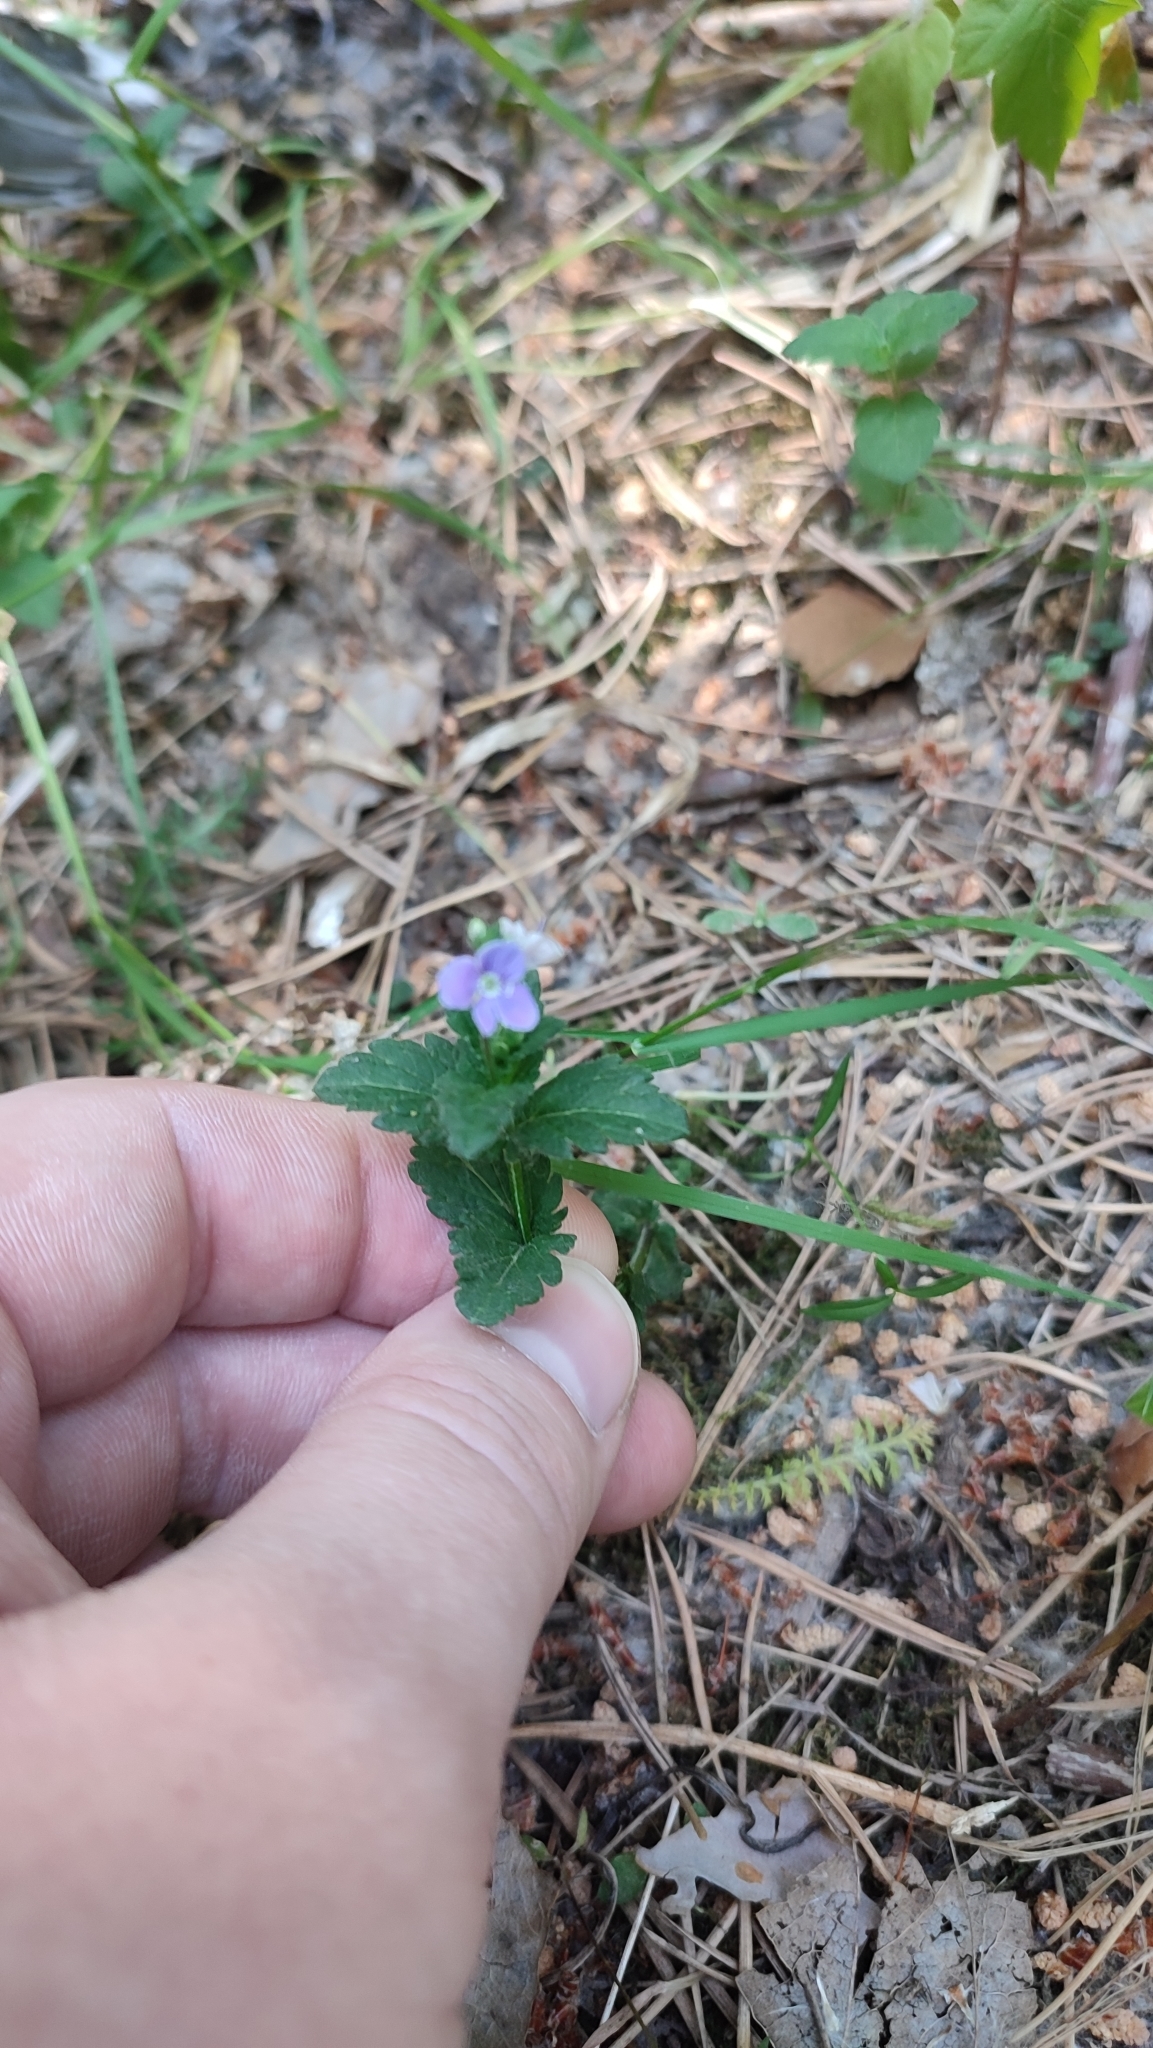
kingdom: Plantae
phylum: Tracheophyta
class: Magnoliopsida
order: Lamiales
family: Plantaginaceae
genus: Veronica
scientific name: Veronica chamaedrys
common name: Germander speedwell
